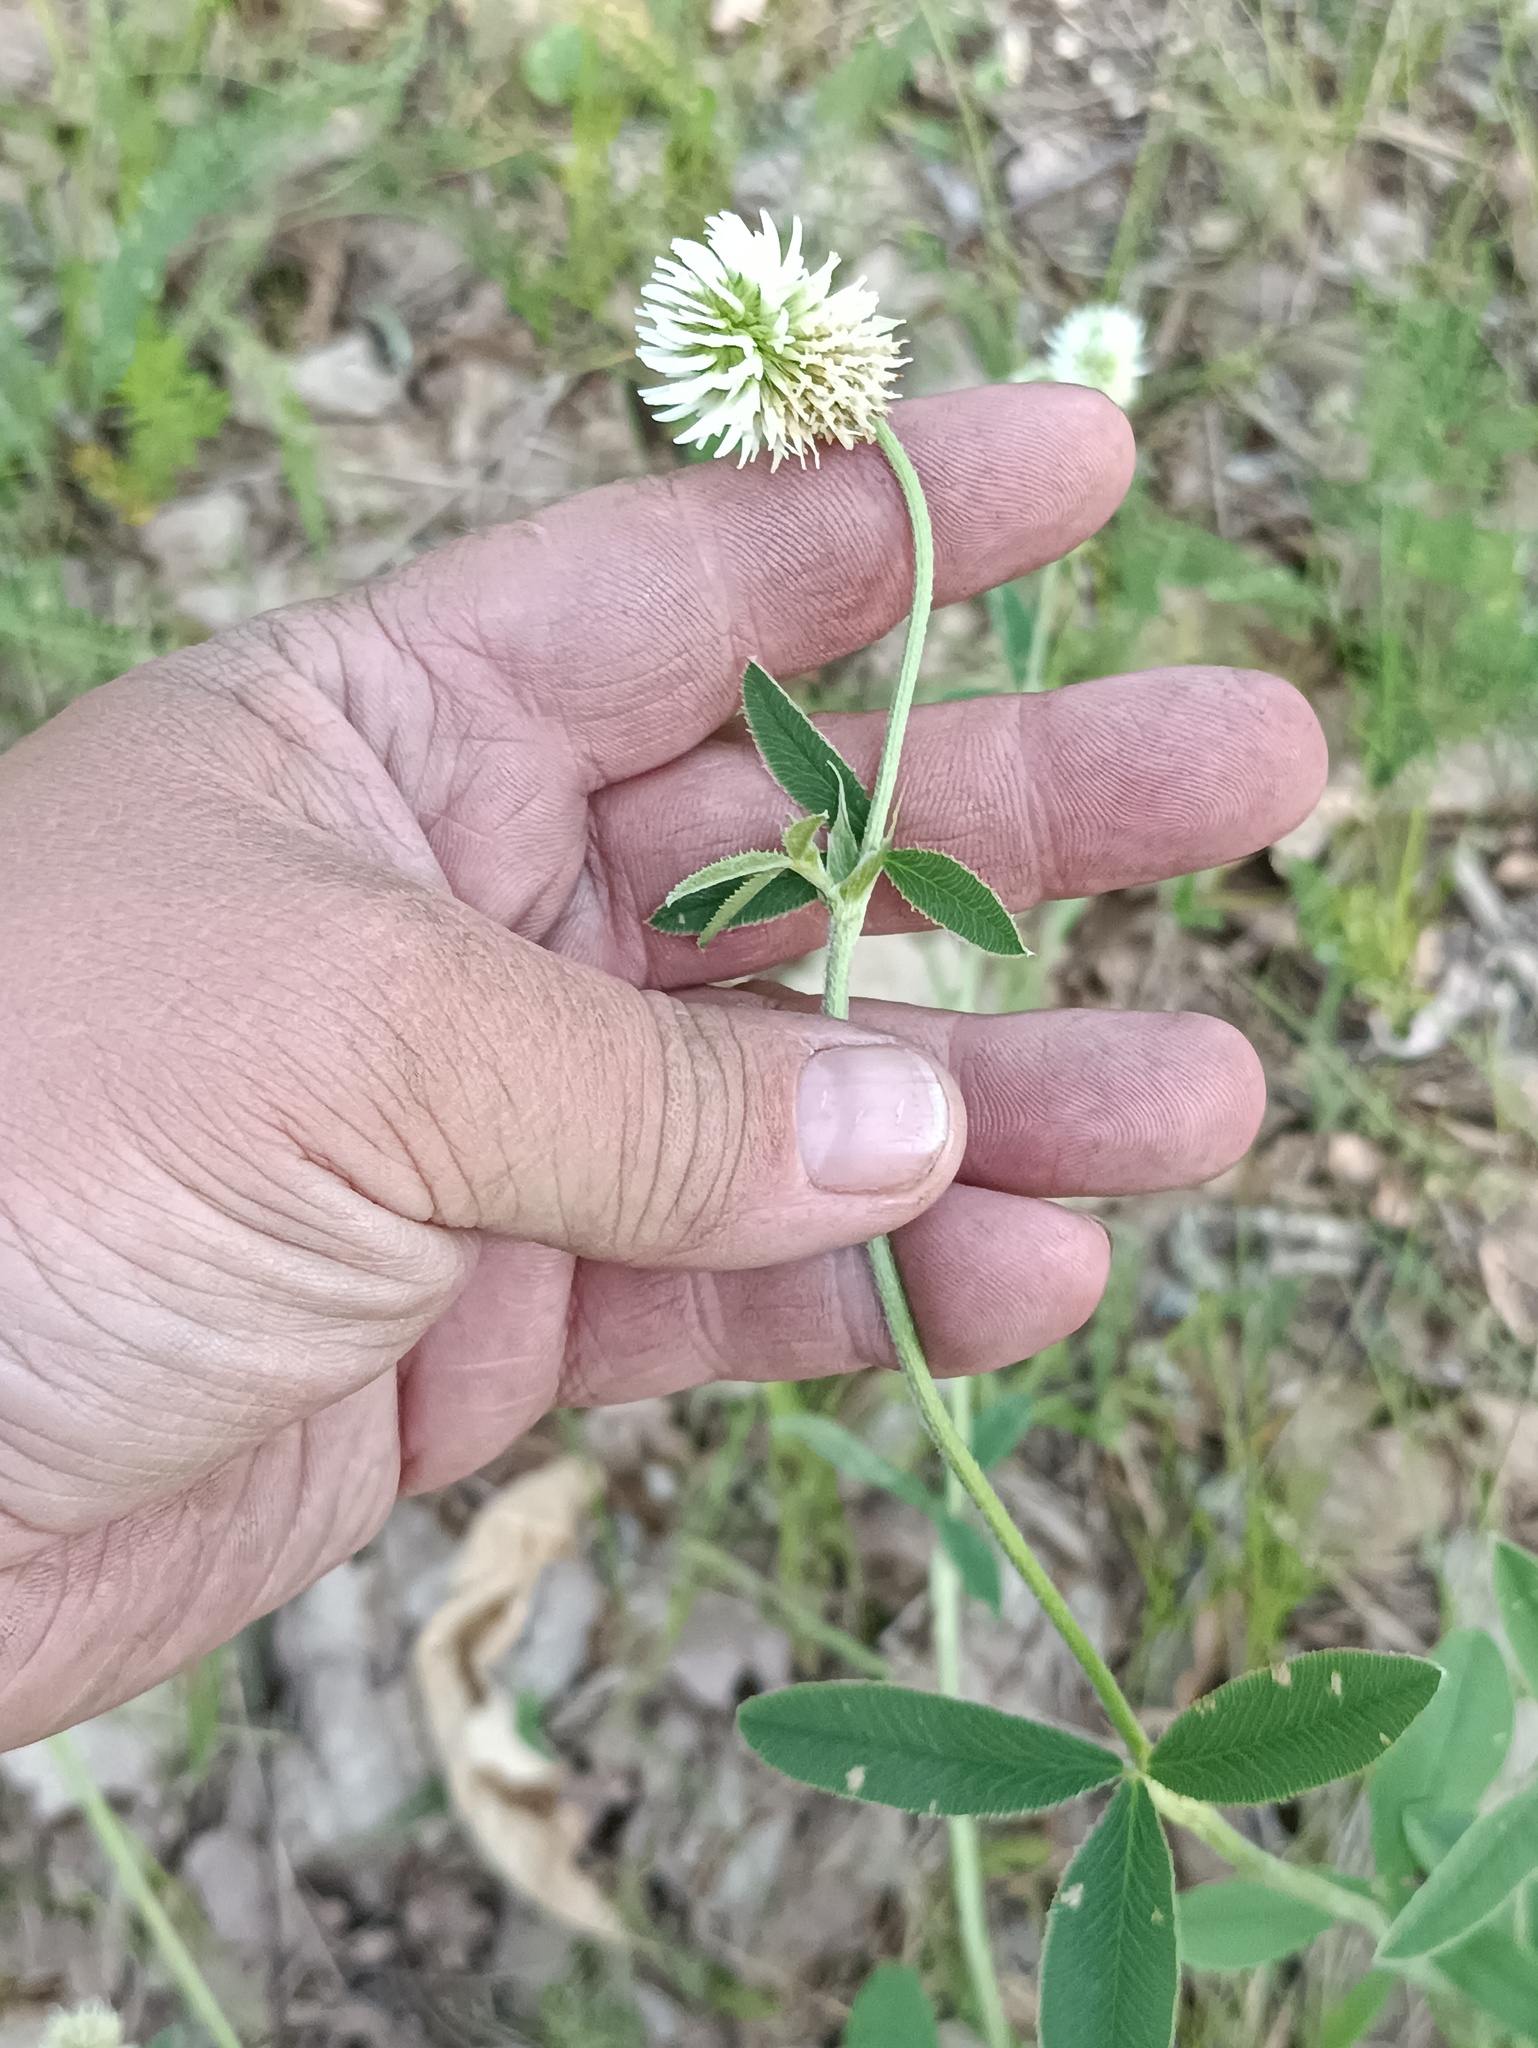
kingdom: Plantae
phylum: Tracheophyta
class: Magnoliopsida
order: Fabales
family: Fabaceae
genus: Trifolium
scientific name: Trifolium montanum
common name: Mountain clover
